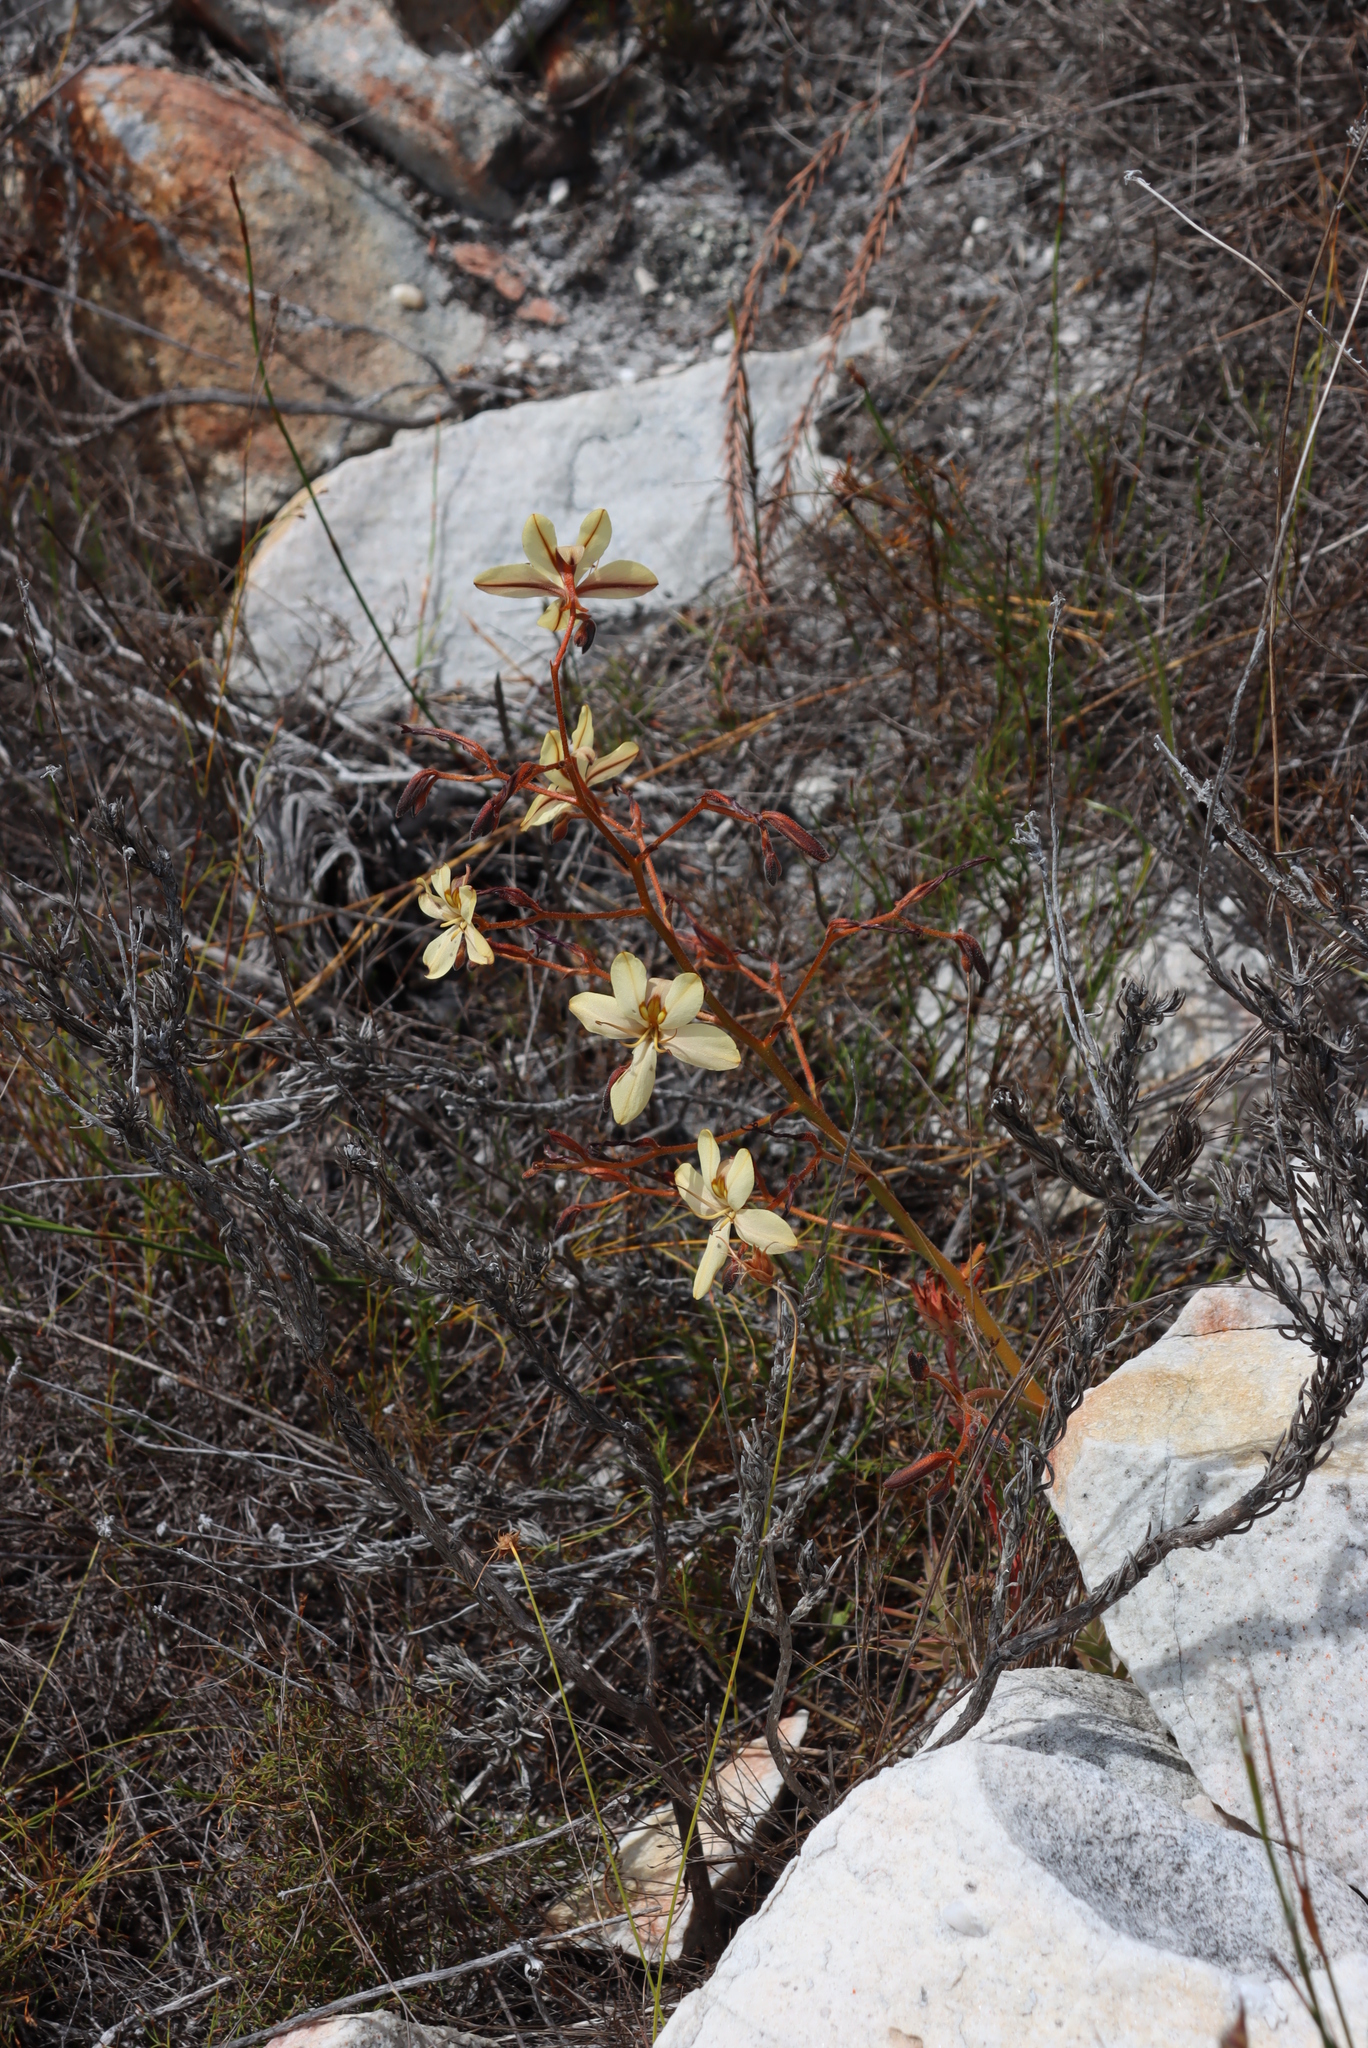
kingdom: Plantae
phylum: Tracheophyta
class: Liliopsida
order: Commelinales
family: Haemodoraceae
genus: Wachendorfia
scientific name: Wachendorfia paniculata
